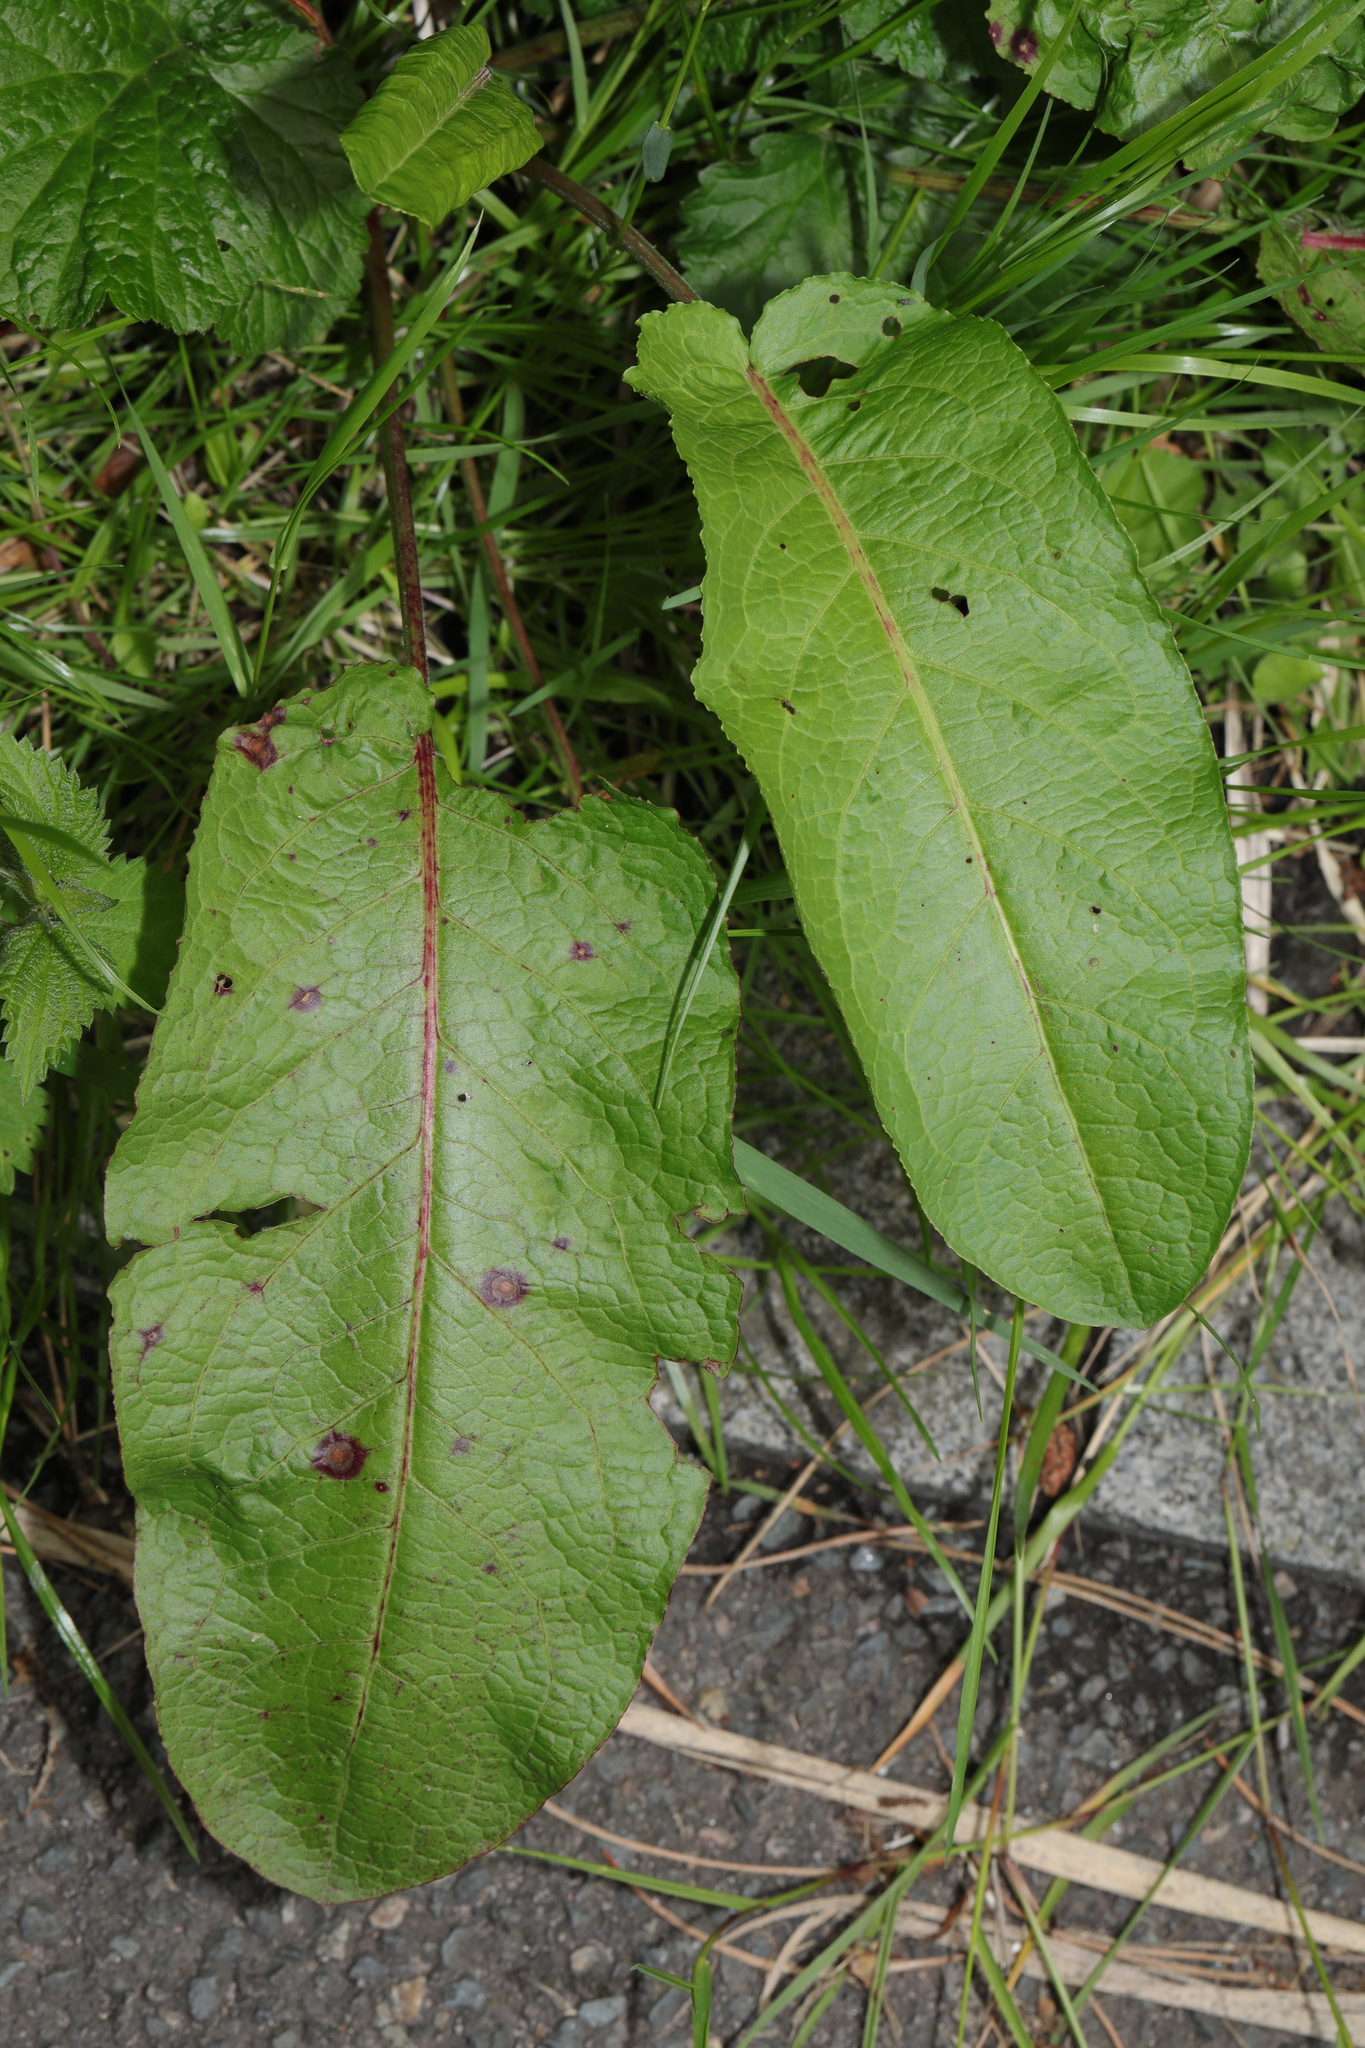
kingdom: Plantae
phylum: Tracheophyta
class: Magnoliopsida
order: Caryophyllales
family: Polygonaceae
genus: Rumex
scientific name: Rumex obtusifolius
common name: Bitter dock
